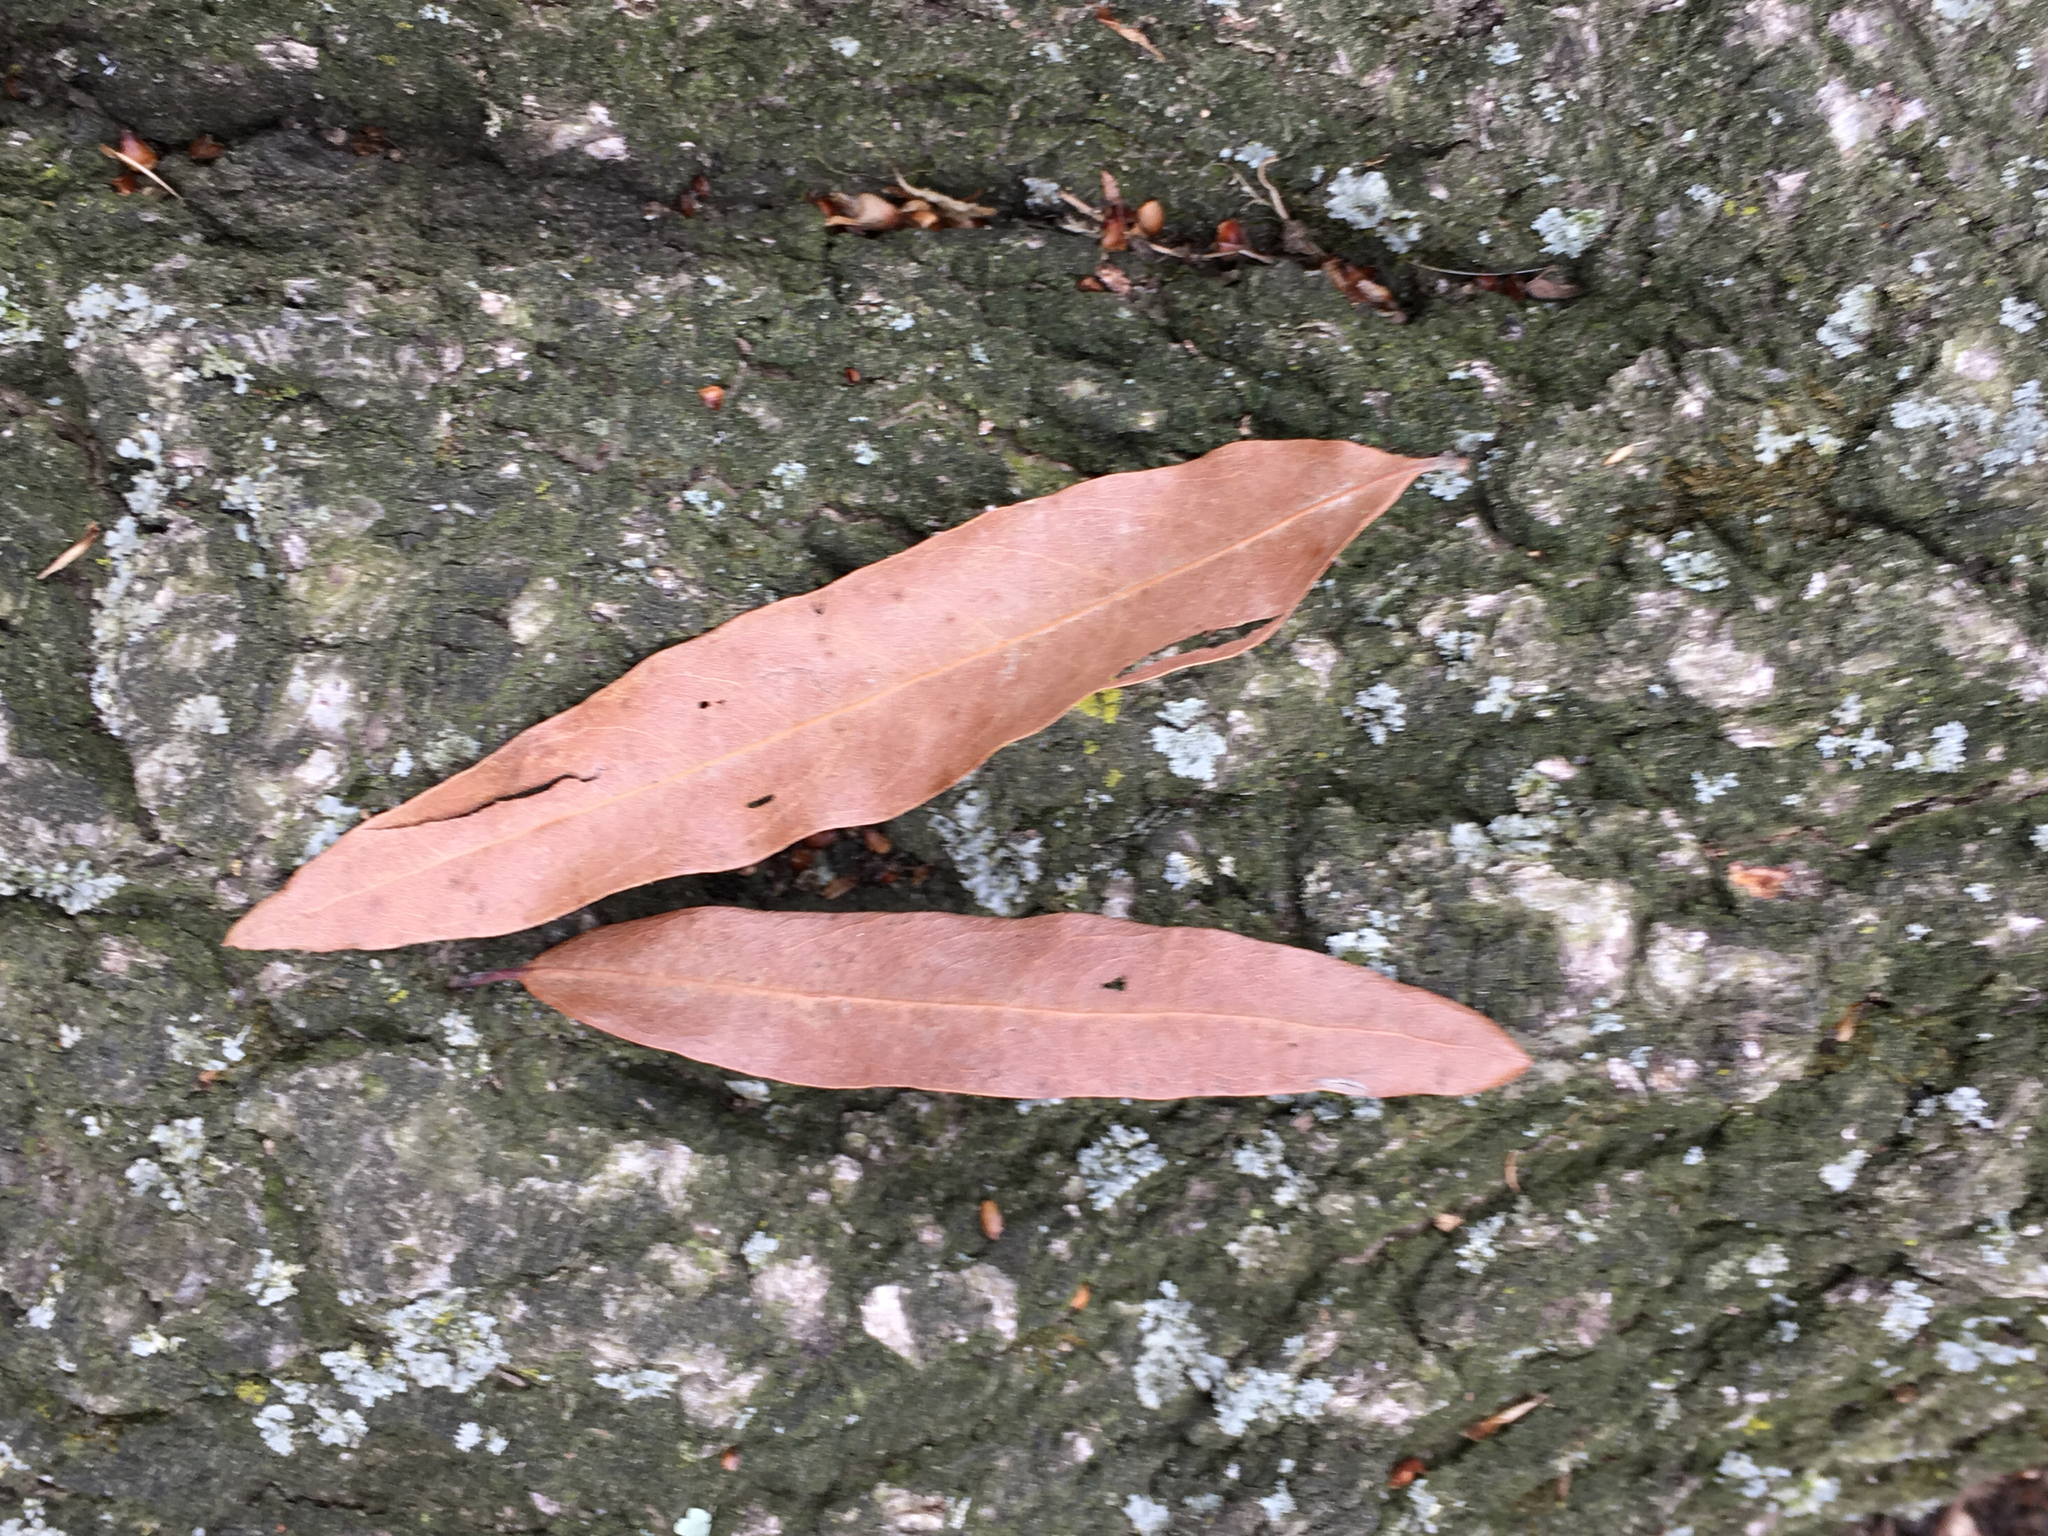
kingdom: Plantae
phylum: Tracheophyta
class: Magnoliopsida
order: Fagales
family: Fagaceae
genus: Quercus
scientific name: Quercus phellos
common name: Willow oak
